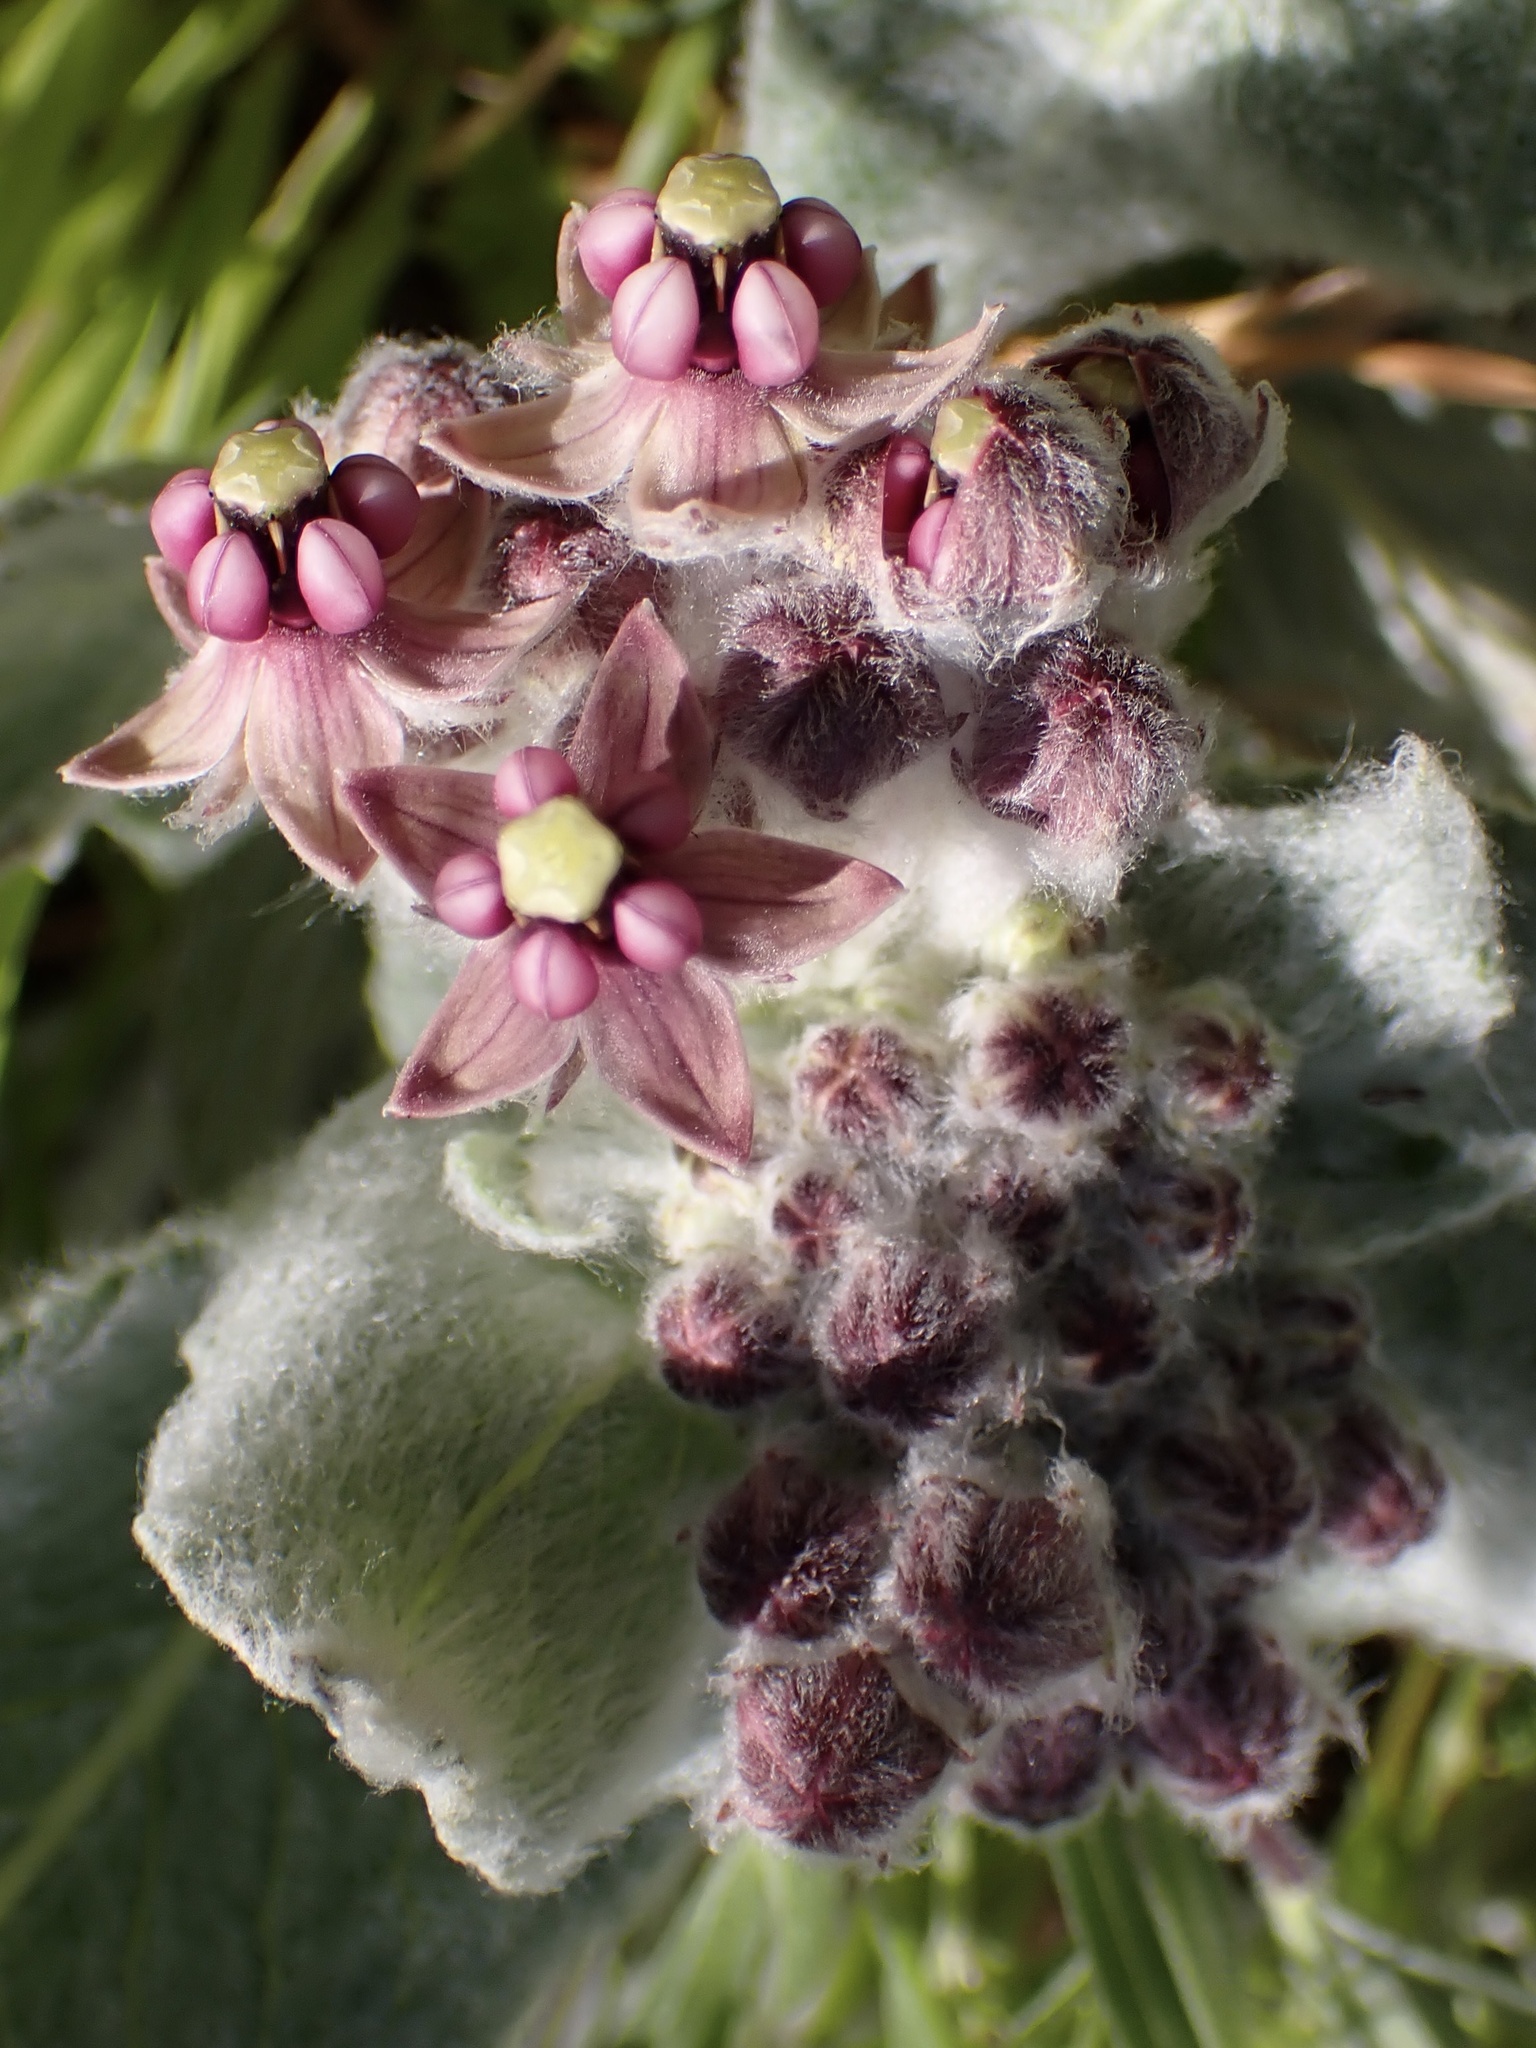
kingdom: Plantae
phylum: Tracheophyta
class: Magnoliopsida
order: Gentianales
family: Apocynaceae
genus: Asclepias
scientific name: Asclepias californica
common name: California milkweed
